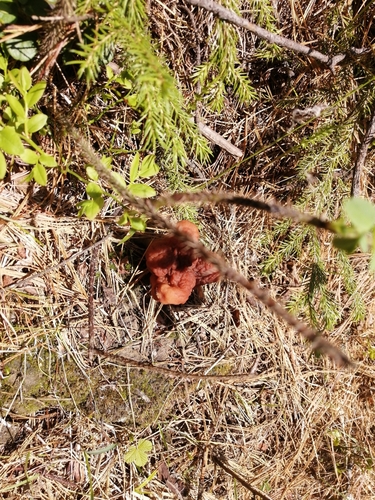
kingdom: Fungi
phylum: Ascomycota
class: Pezizomycetes
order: Pezizales
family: Discinaceae
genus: Gyromitra
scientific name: Gyromitra
